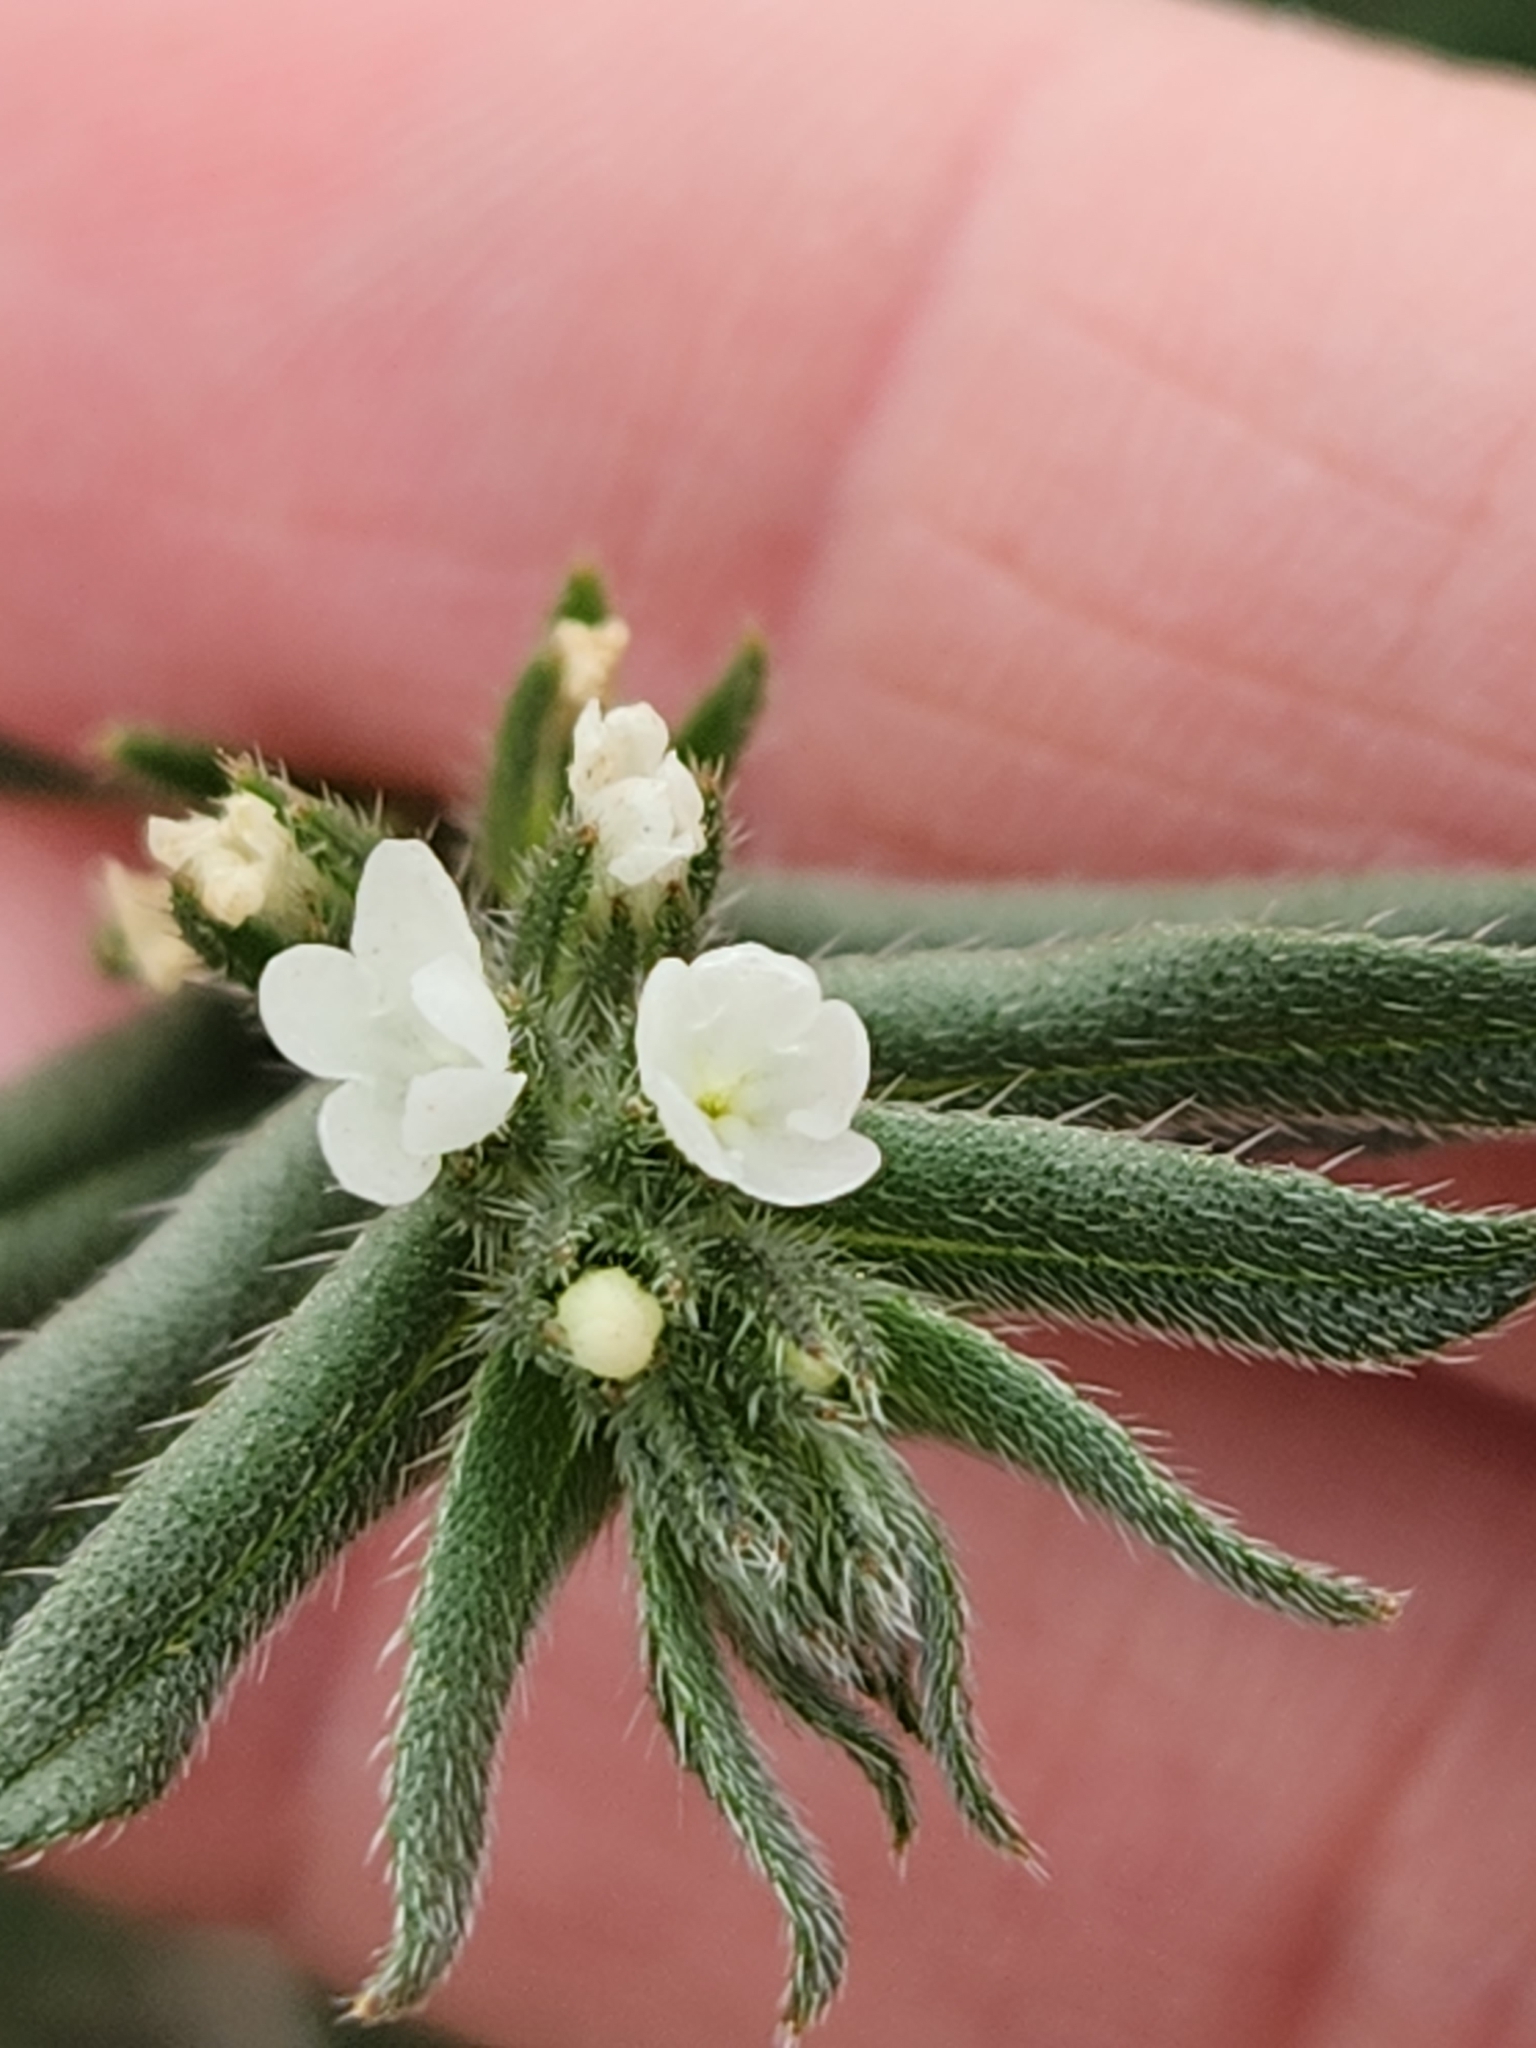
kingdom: Plantae
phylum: Tracheophyta
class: Magnoliopsida
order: Boraginales
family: Boraginaceae
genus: Buglossoides
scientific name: Buglossoides arvensis
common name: Corn gromwell
